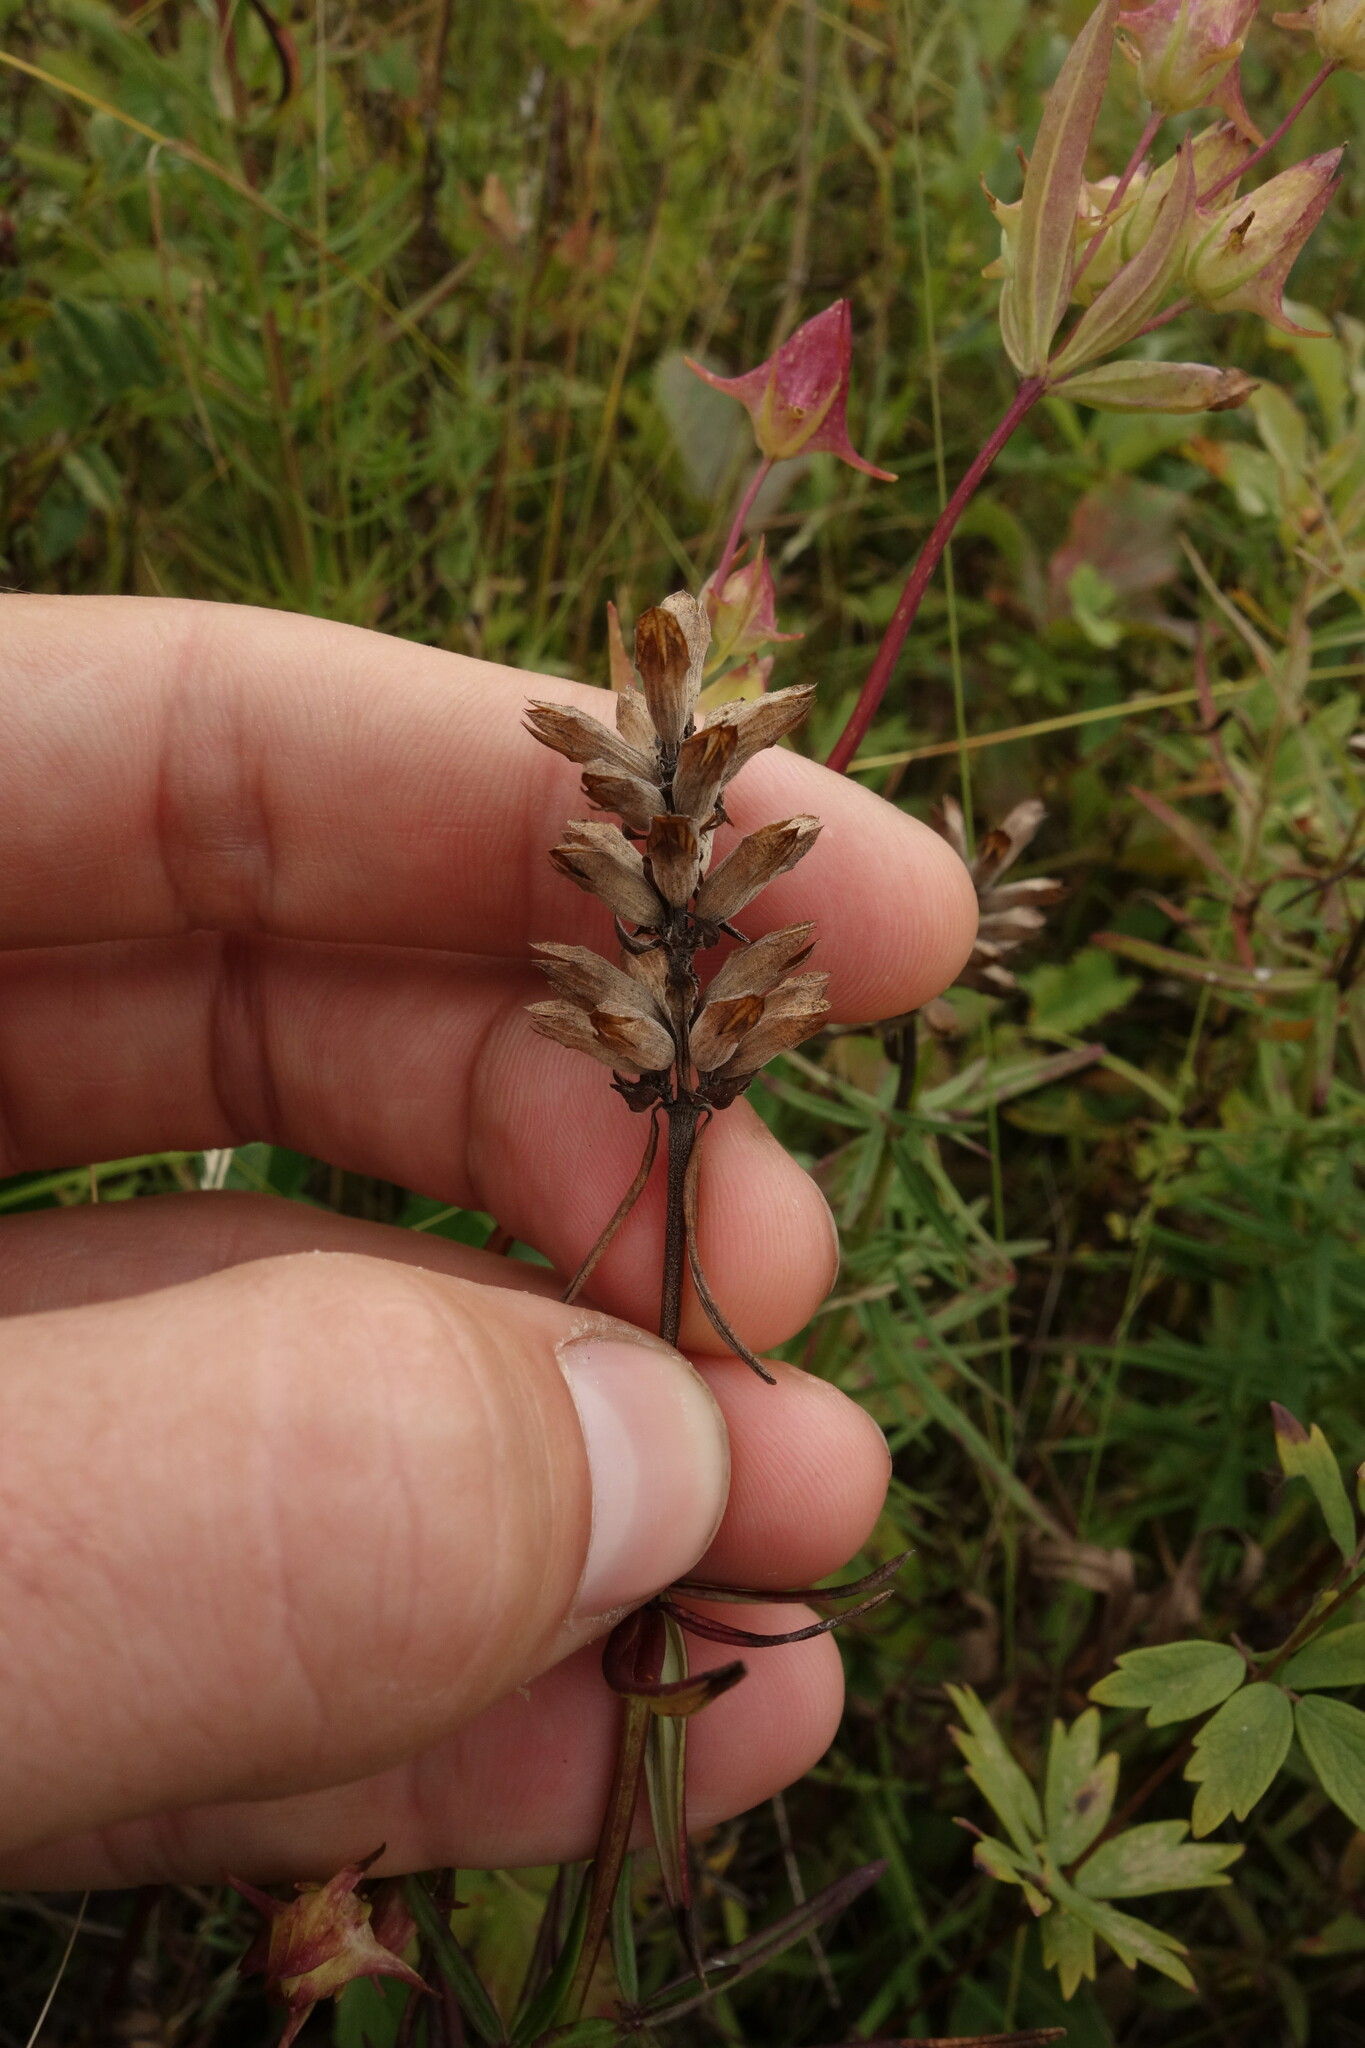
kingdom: Plantae
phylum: Tracheophyta
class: Magnoliopsida
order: Lamiales
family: Lamiaceae
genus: Dracocephalum
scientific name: Dracocephalum ruyschiana
